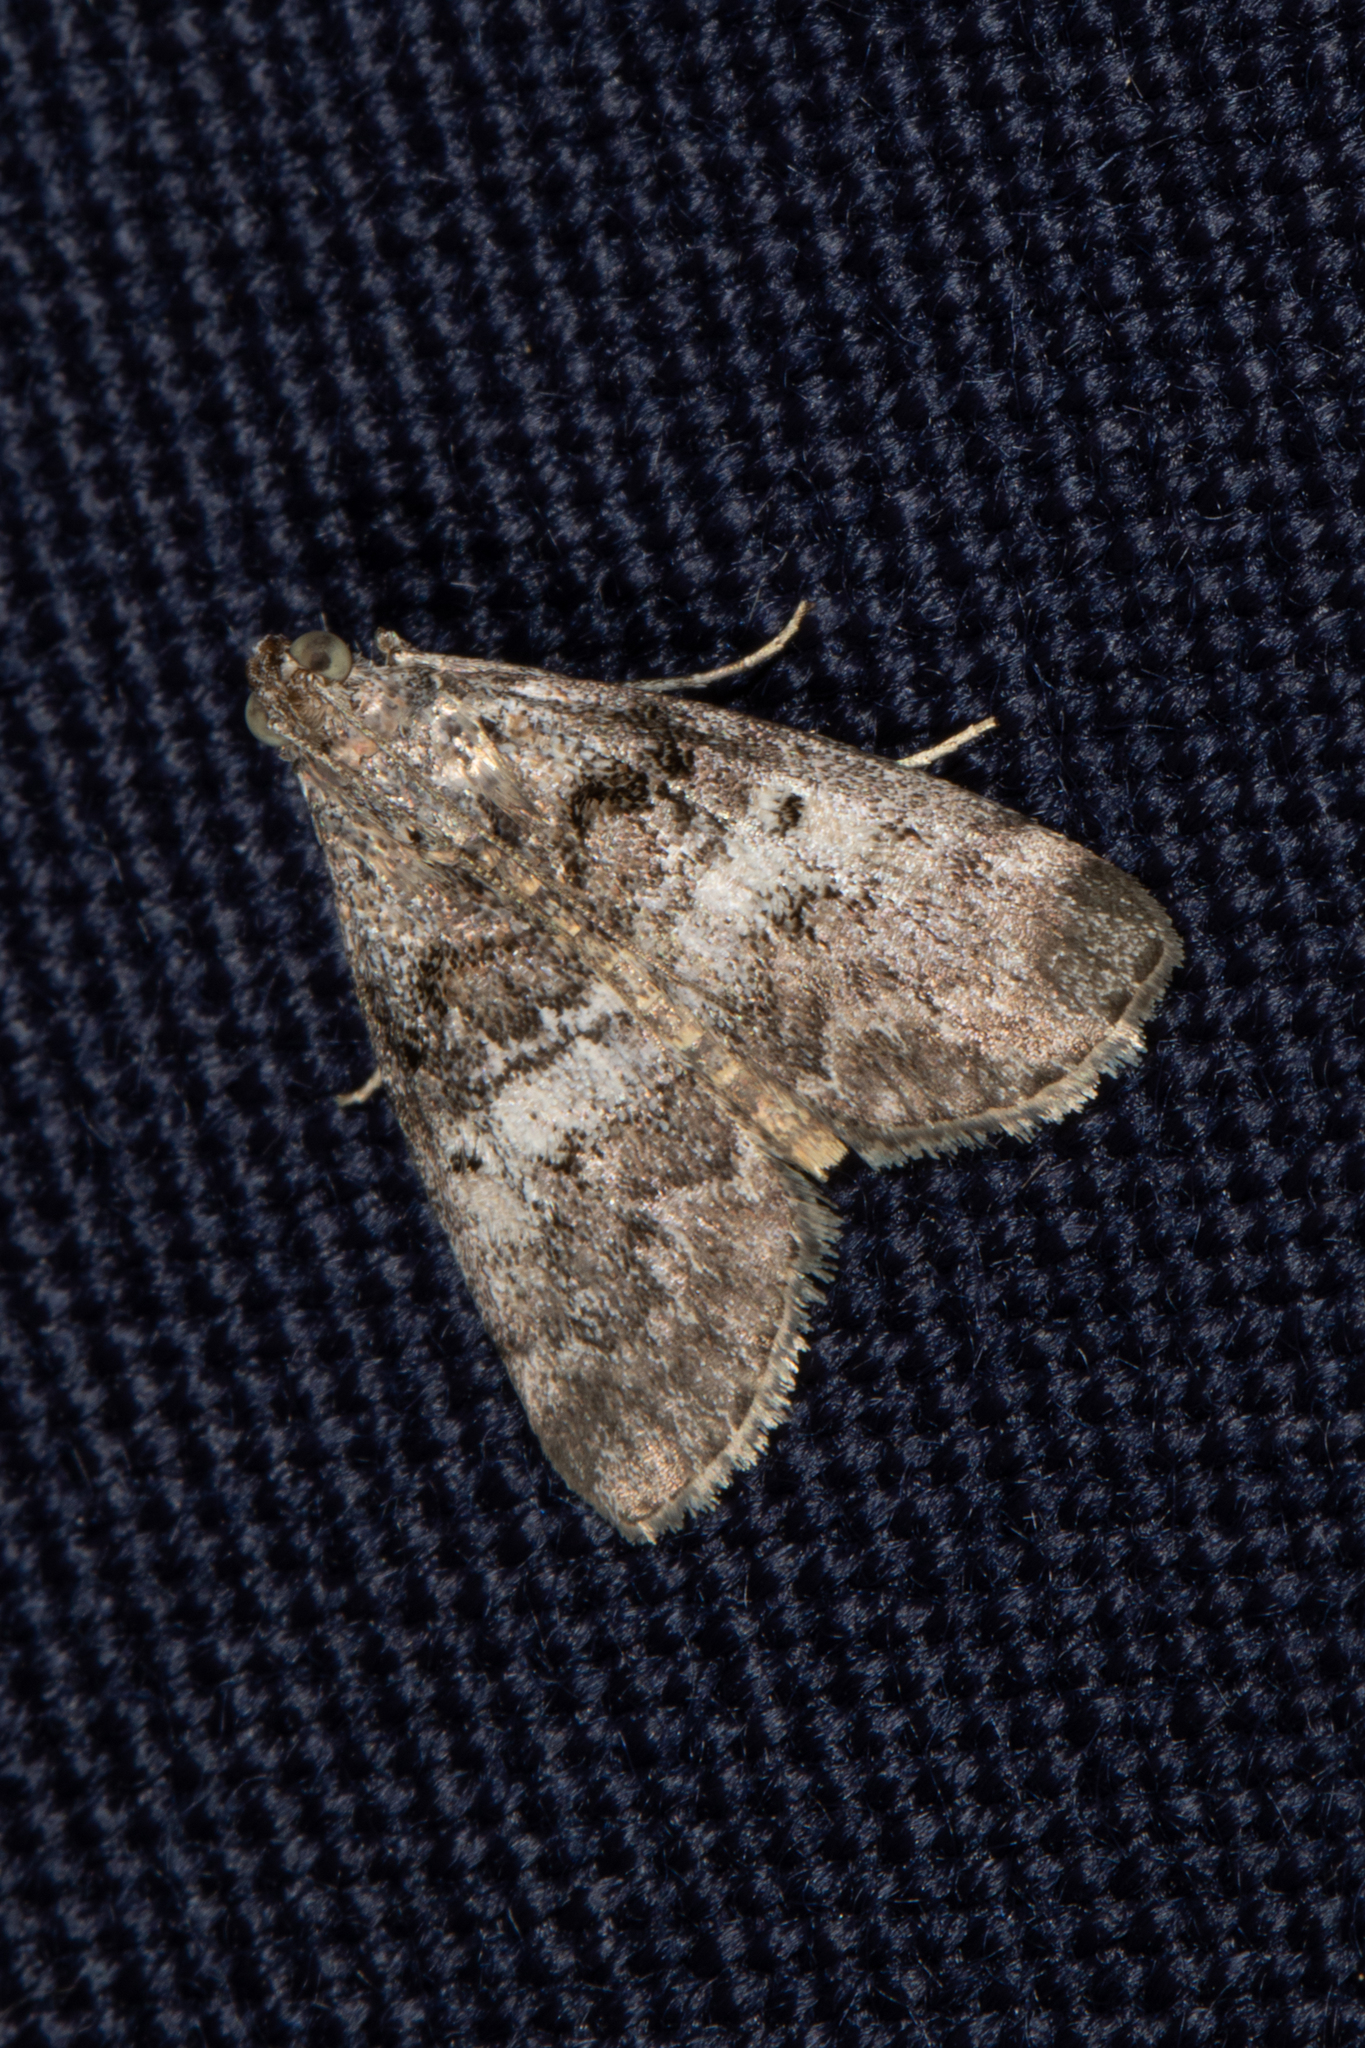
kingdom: Animalia
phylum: Arthropoda
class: Insecta
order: Lepidoptera
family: Pyralidae
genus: Pococera
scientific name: Pococera asperatella
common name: Maple webworm moth
